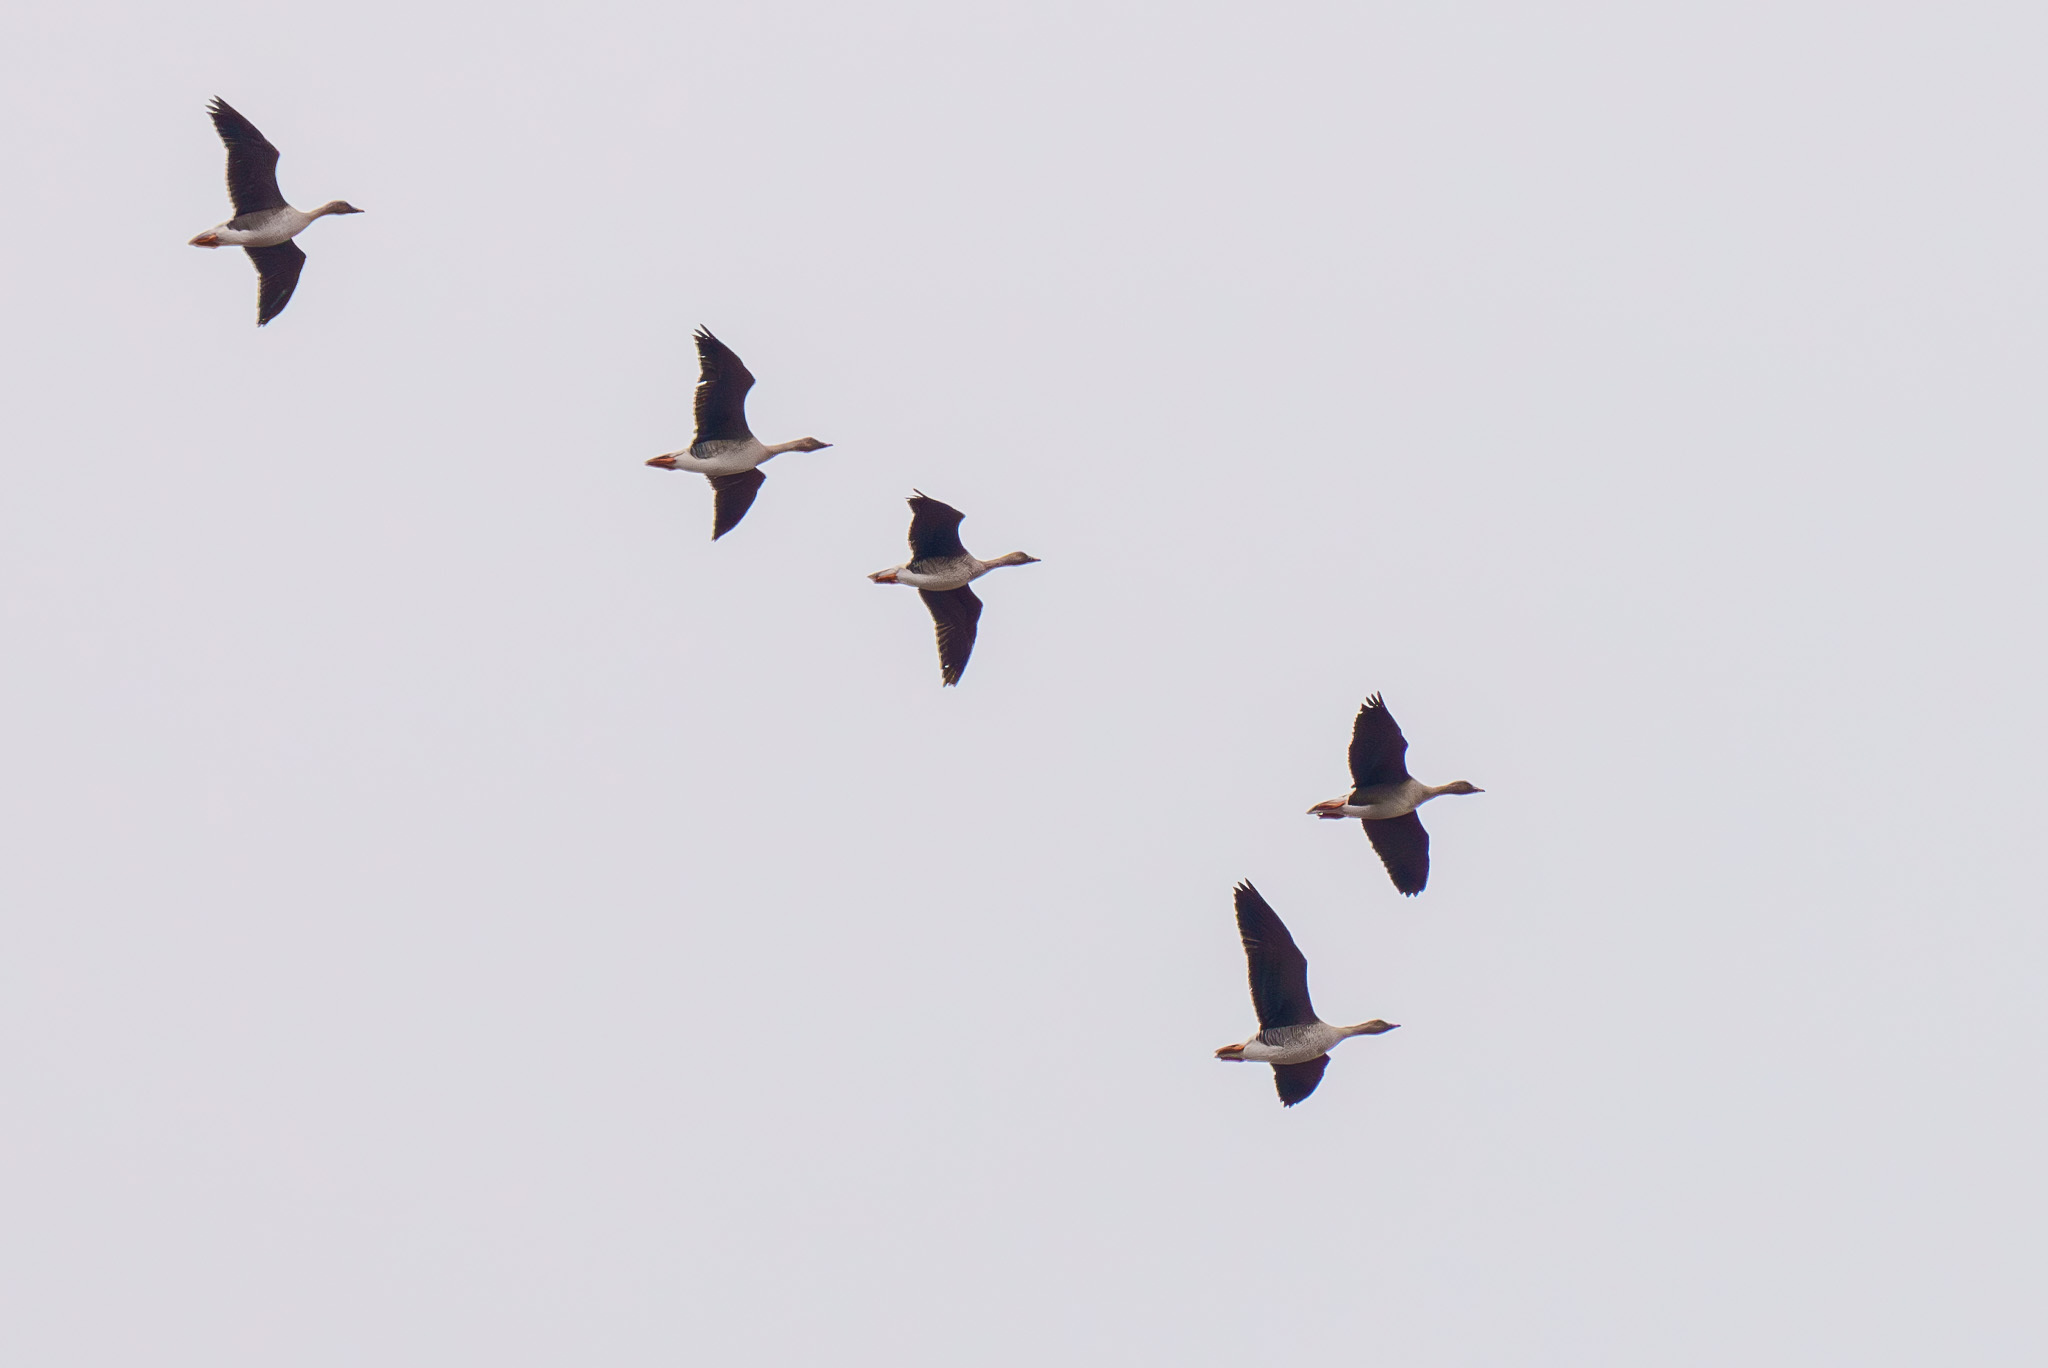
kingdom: Animalia
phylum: Chordata
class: Aves
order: Anseriformes
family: Anatidae
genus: Anser
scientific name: Anser fabalis
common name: Bean goose
